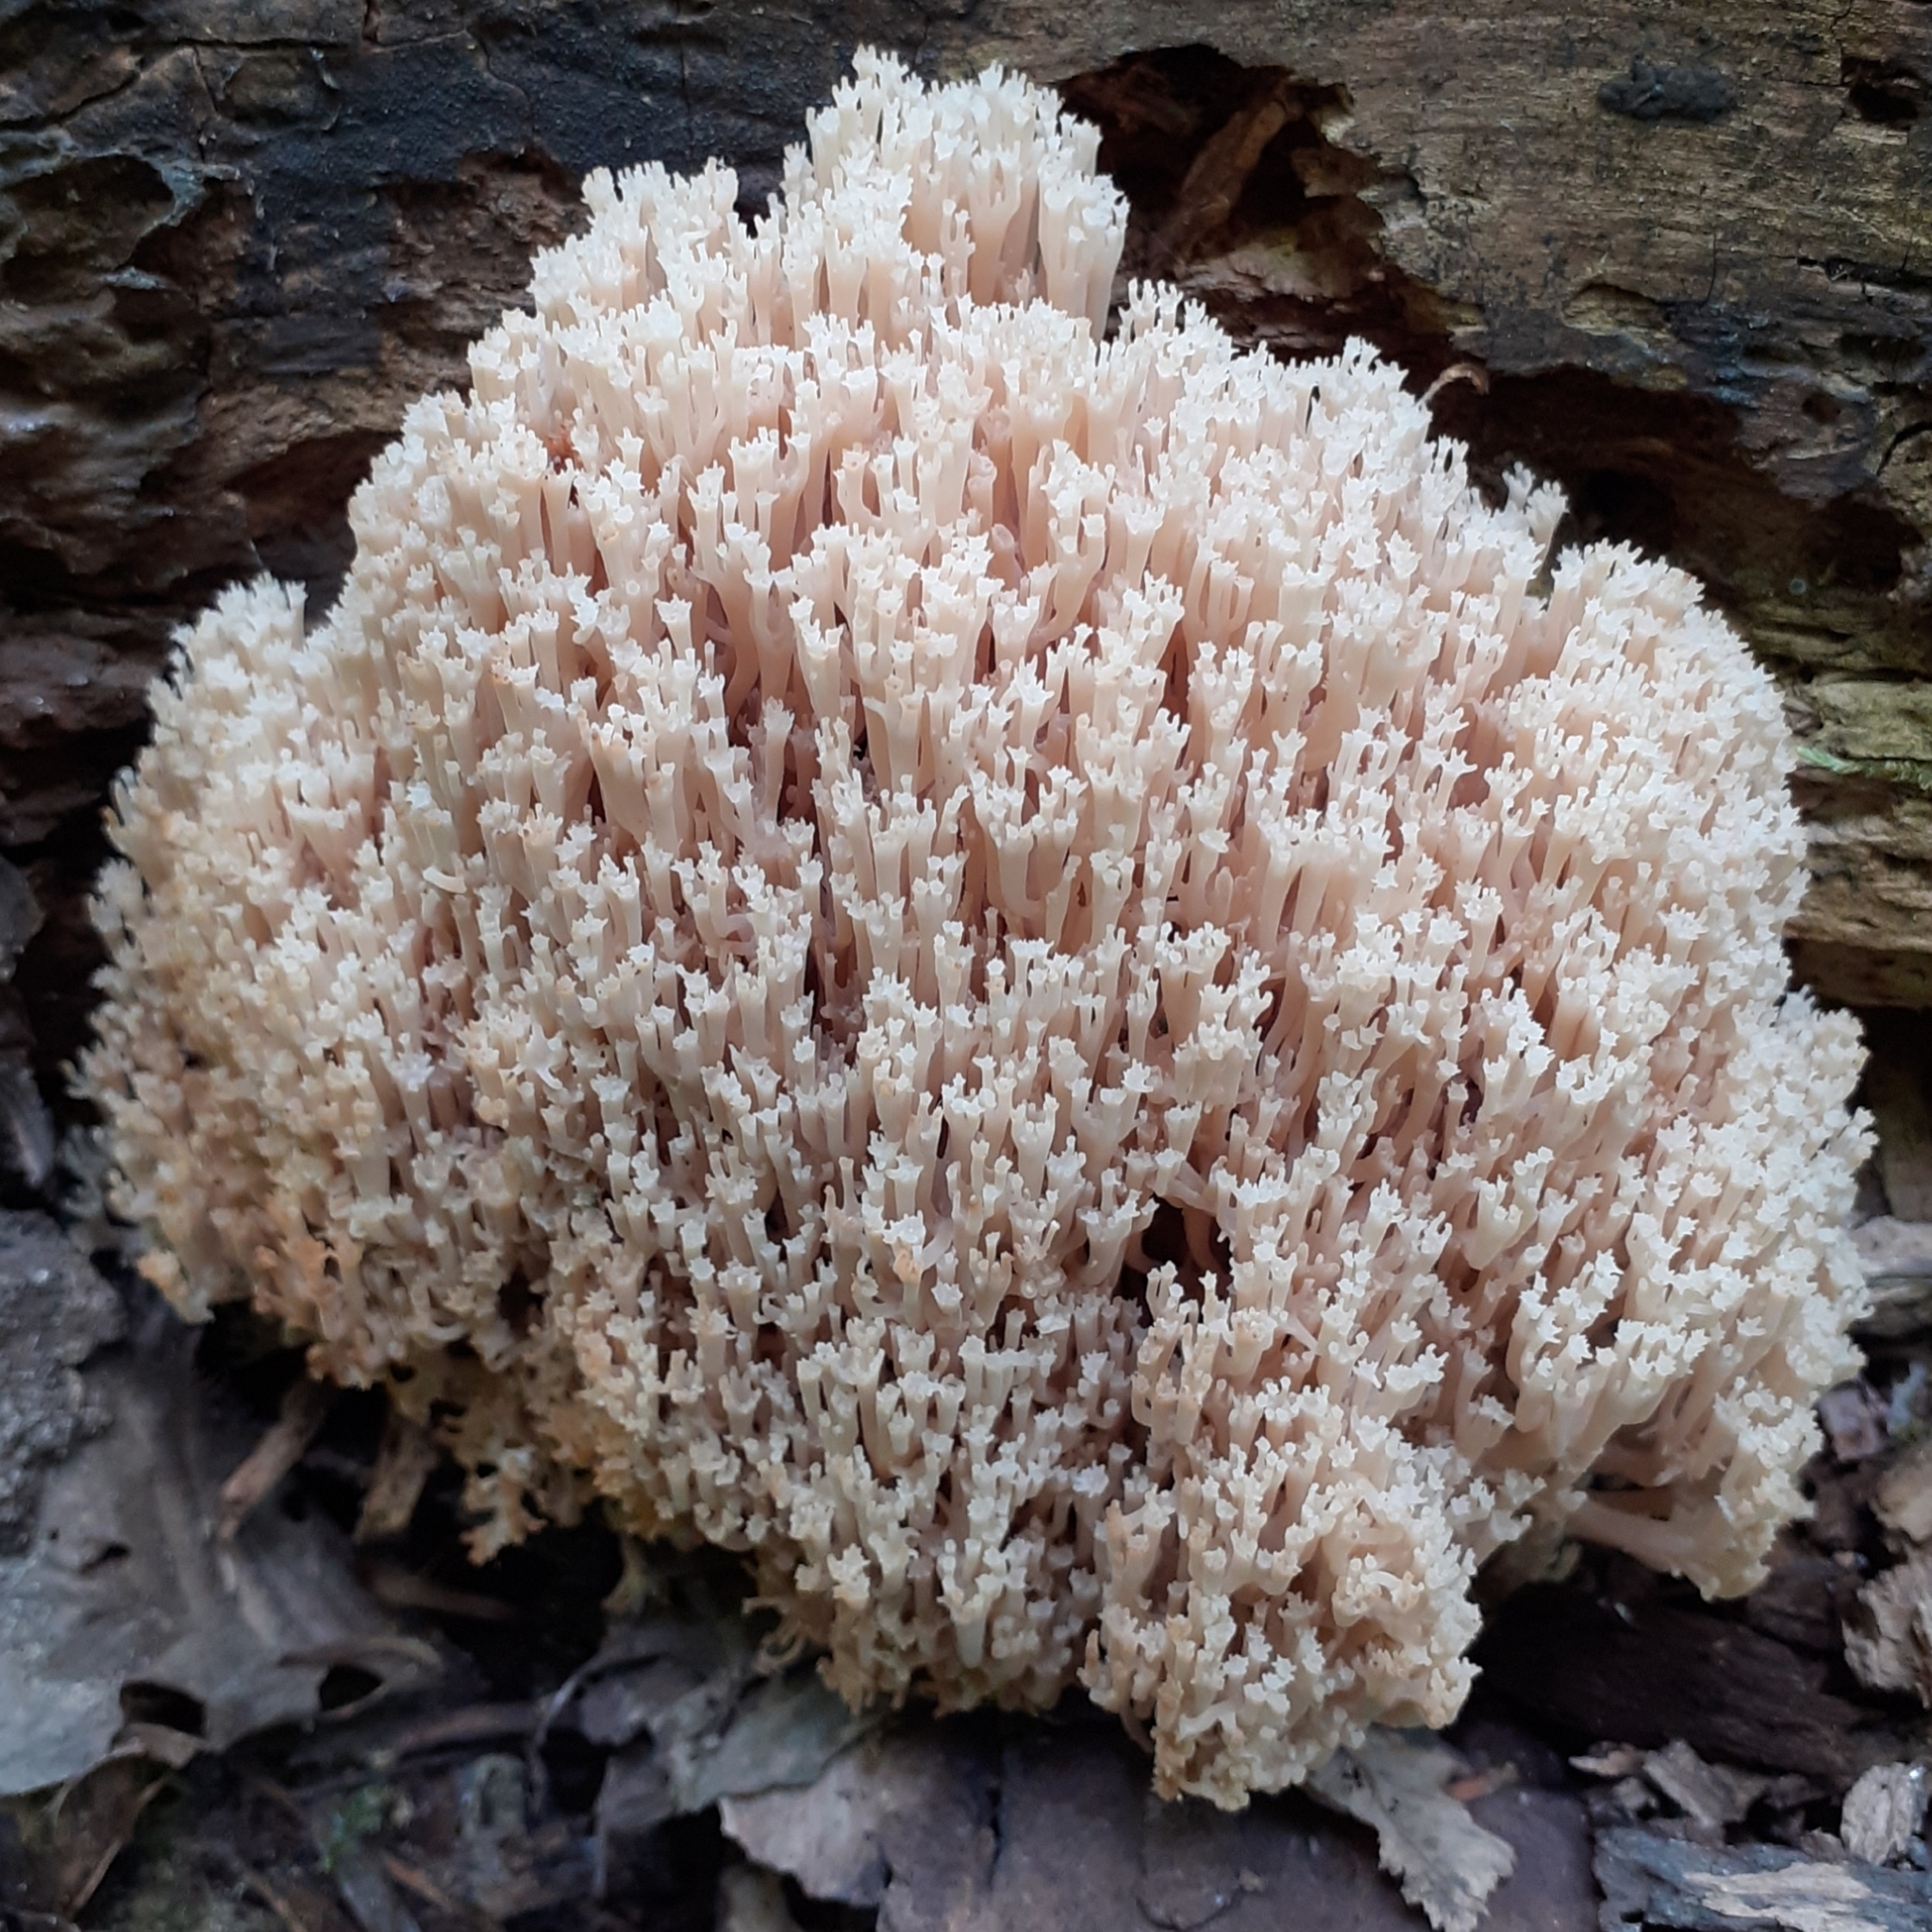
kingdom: Fungi
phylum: Basidiomycota
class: Agaricomycetes
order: Russulales
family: Auriscalpiaceae
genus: Artomyces
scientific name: Artomyces pyxidatus
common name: Crown-tipped coral fungus
